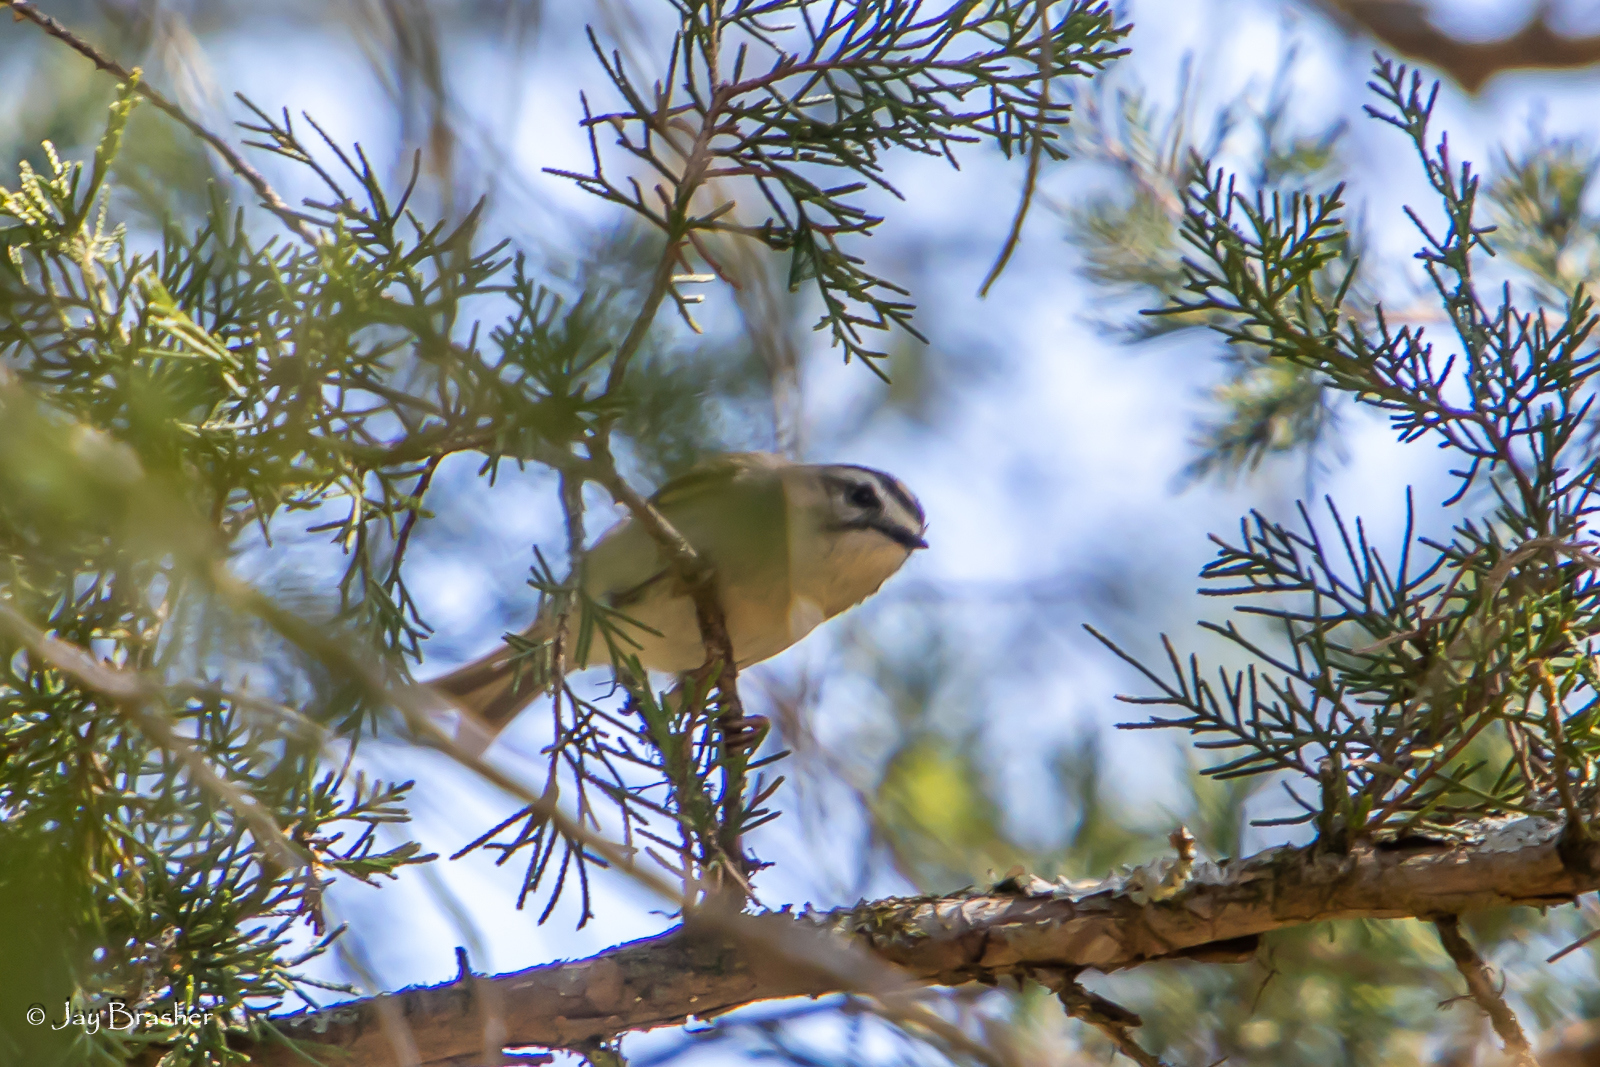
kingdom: Animalia
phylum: Chordata
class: Aves
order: Passeriformes
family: Regulidae
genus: Regulus
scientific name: Regulus satrapa
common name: Golden-crowned kinglet
